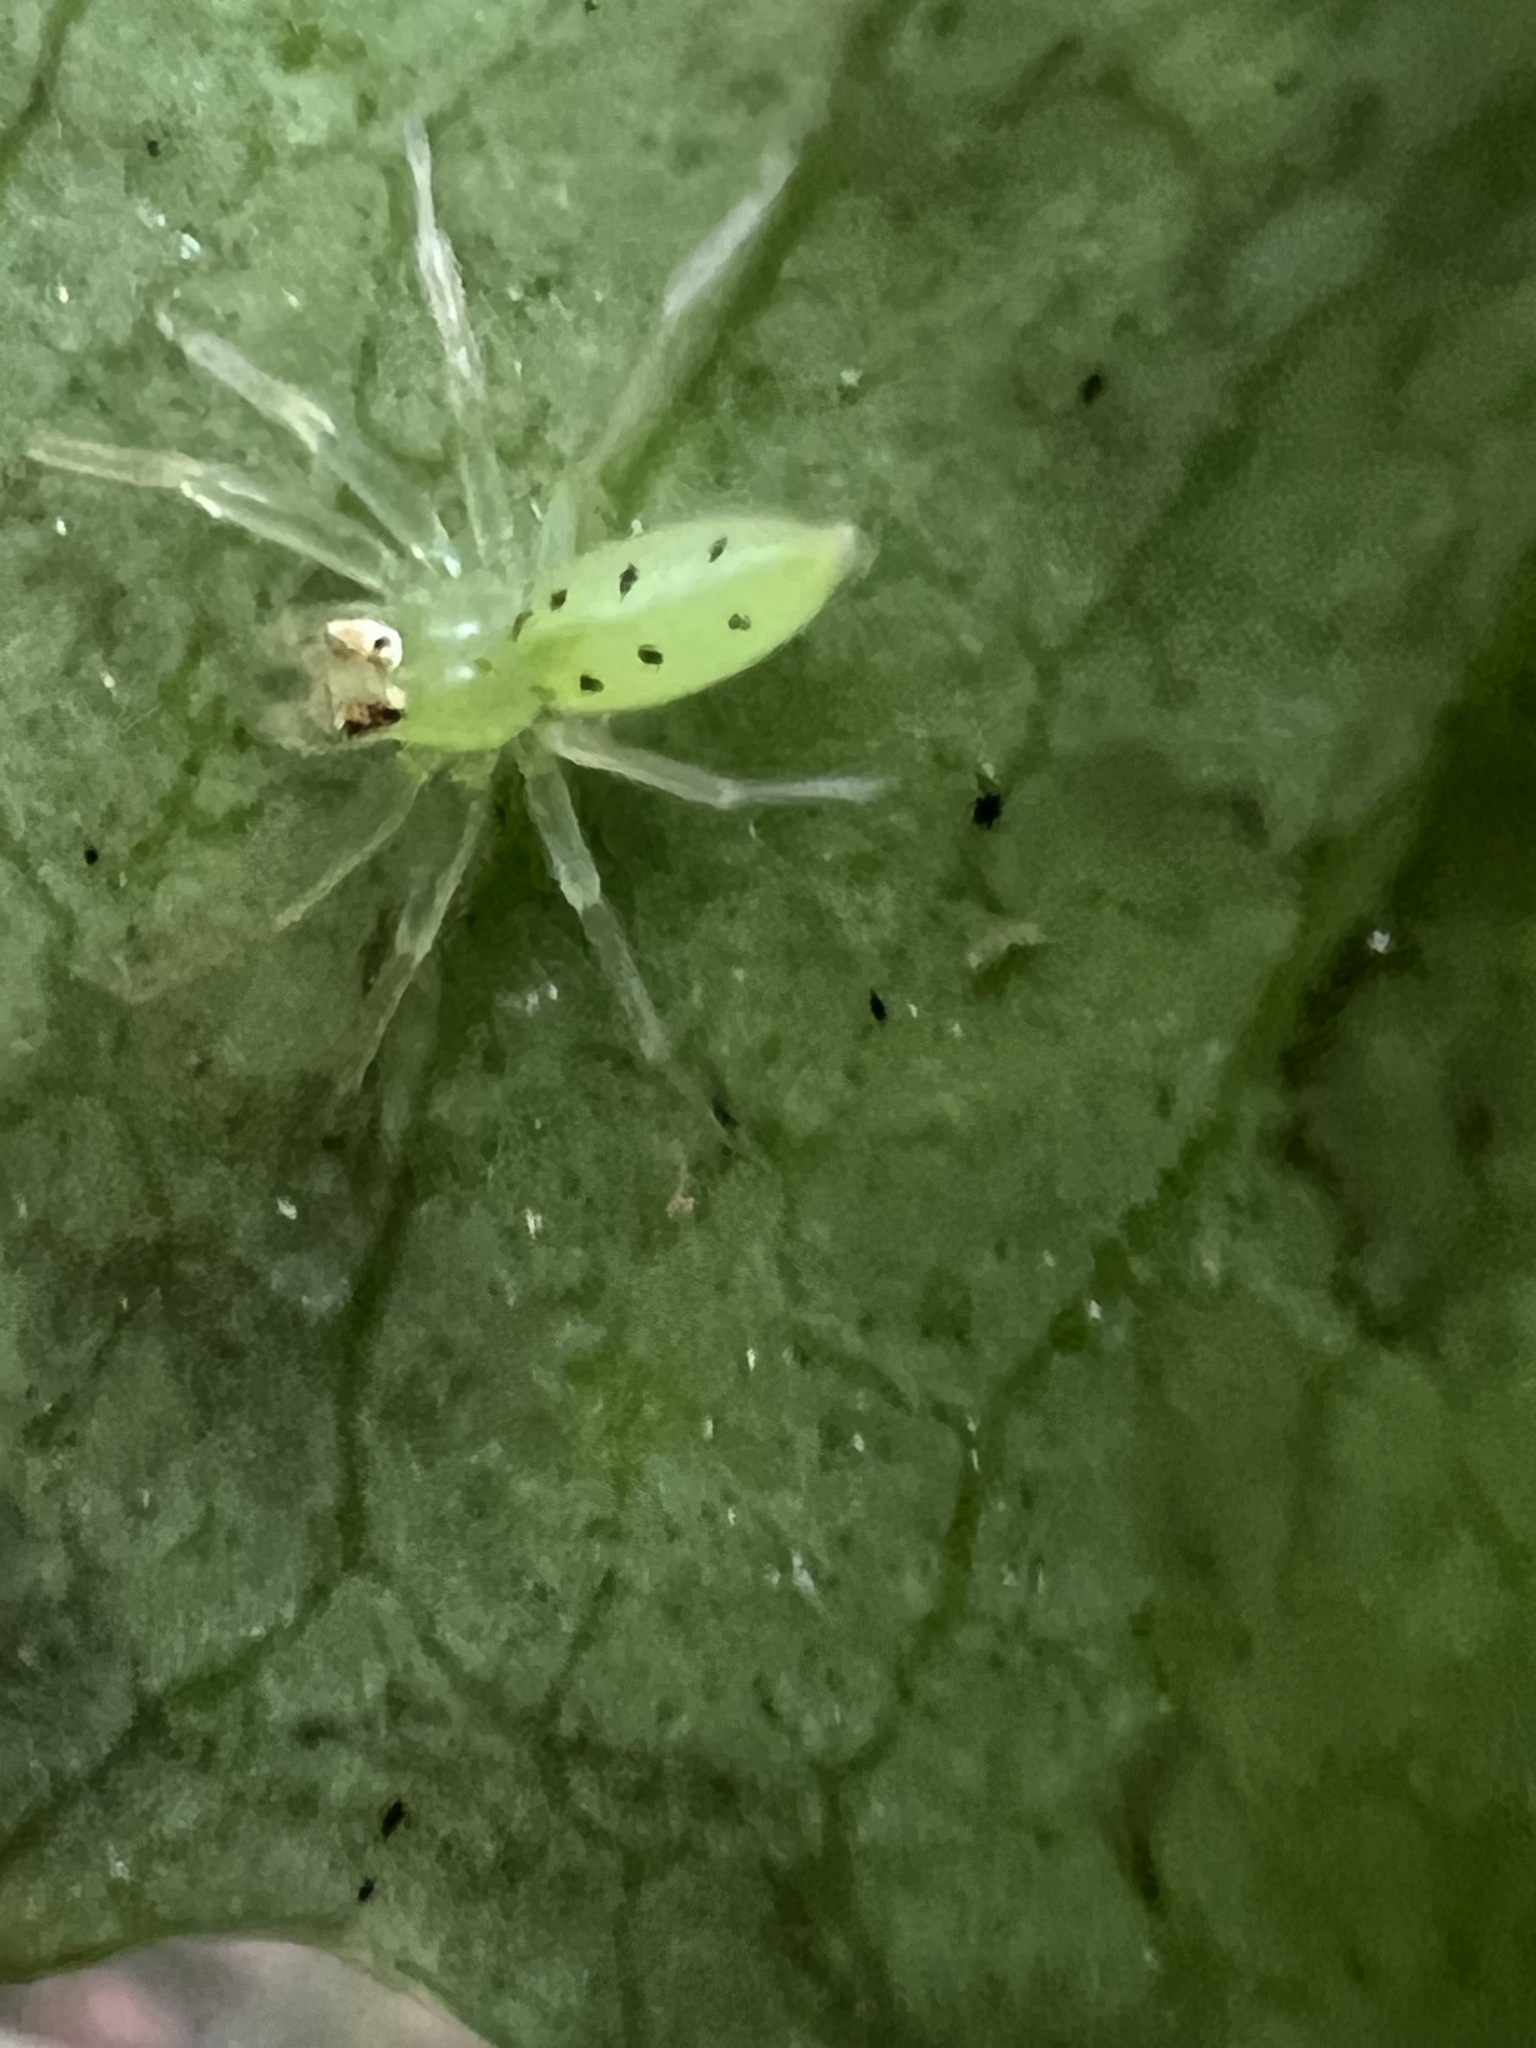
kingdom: Animalia
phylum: Arthropoda
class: Arachnida
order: Araneae
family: Salticidae
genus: Lyssomanes
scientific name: Lyssomanes viridis
